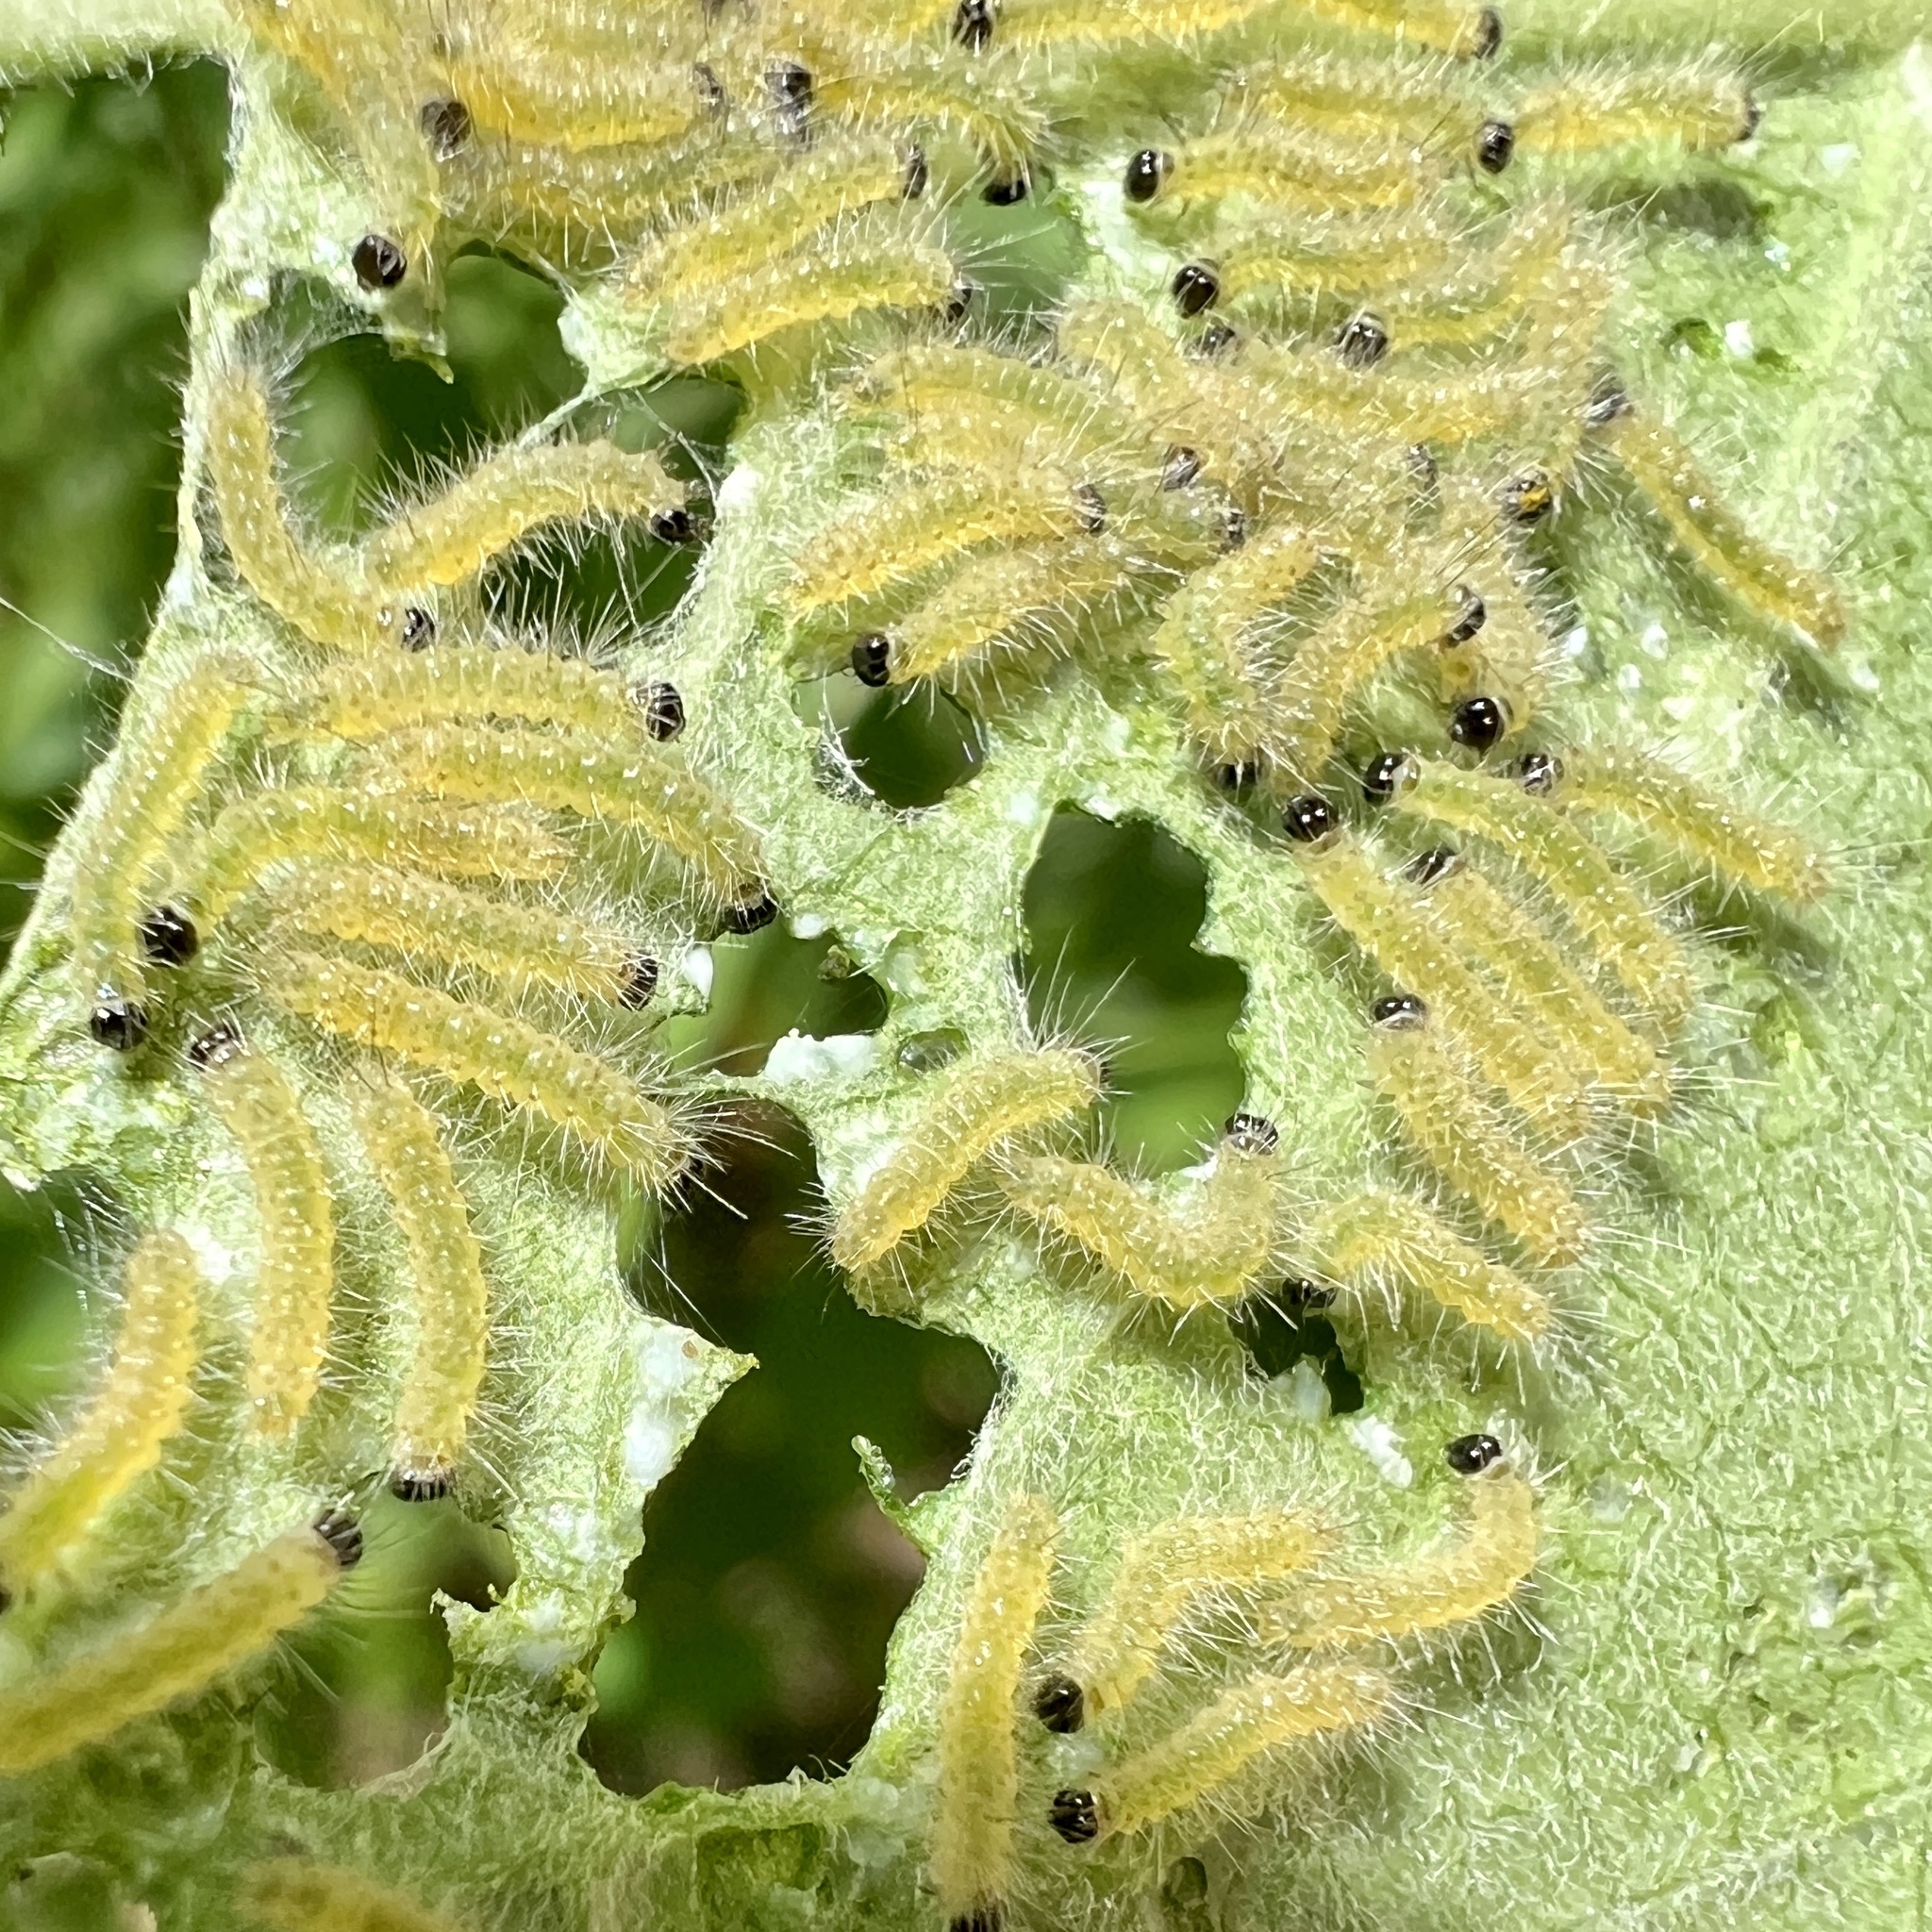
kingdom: Animalia
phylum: Arthropoda
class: Insecta
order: Lepidoptera
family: Erebidae
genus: Euchaetes
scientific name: Euchaetes egle
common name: Milkweed tussock moth
